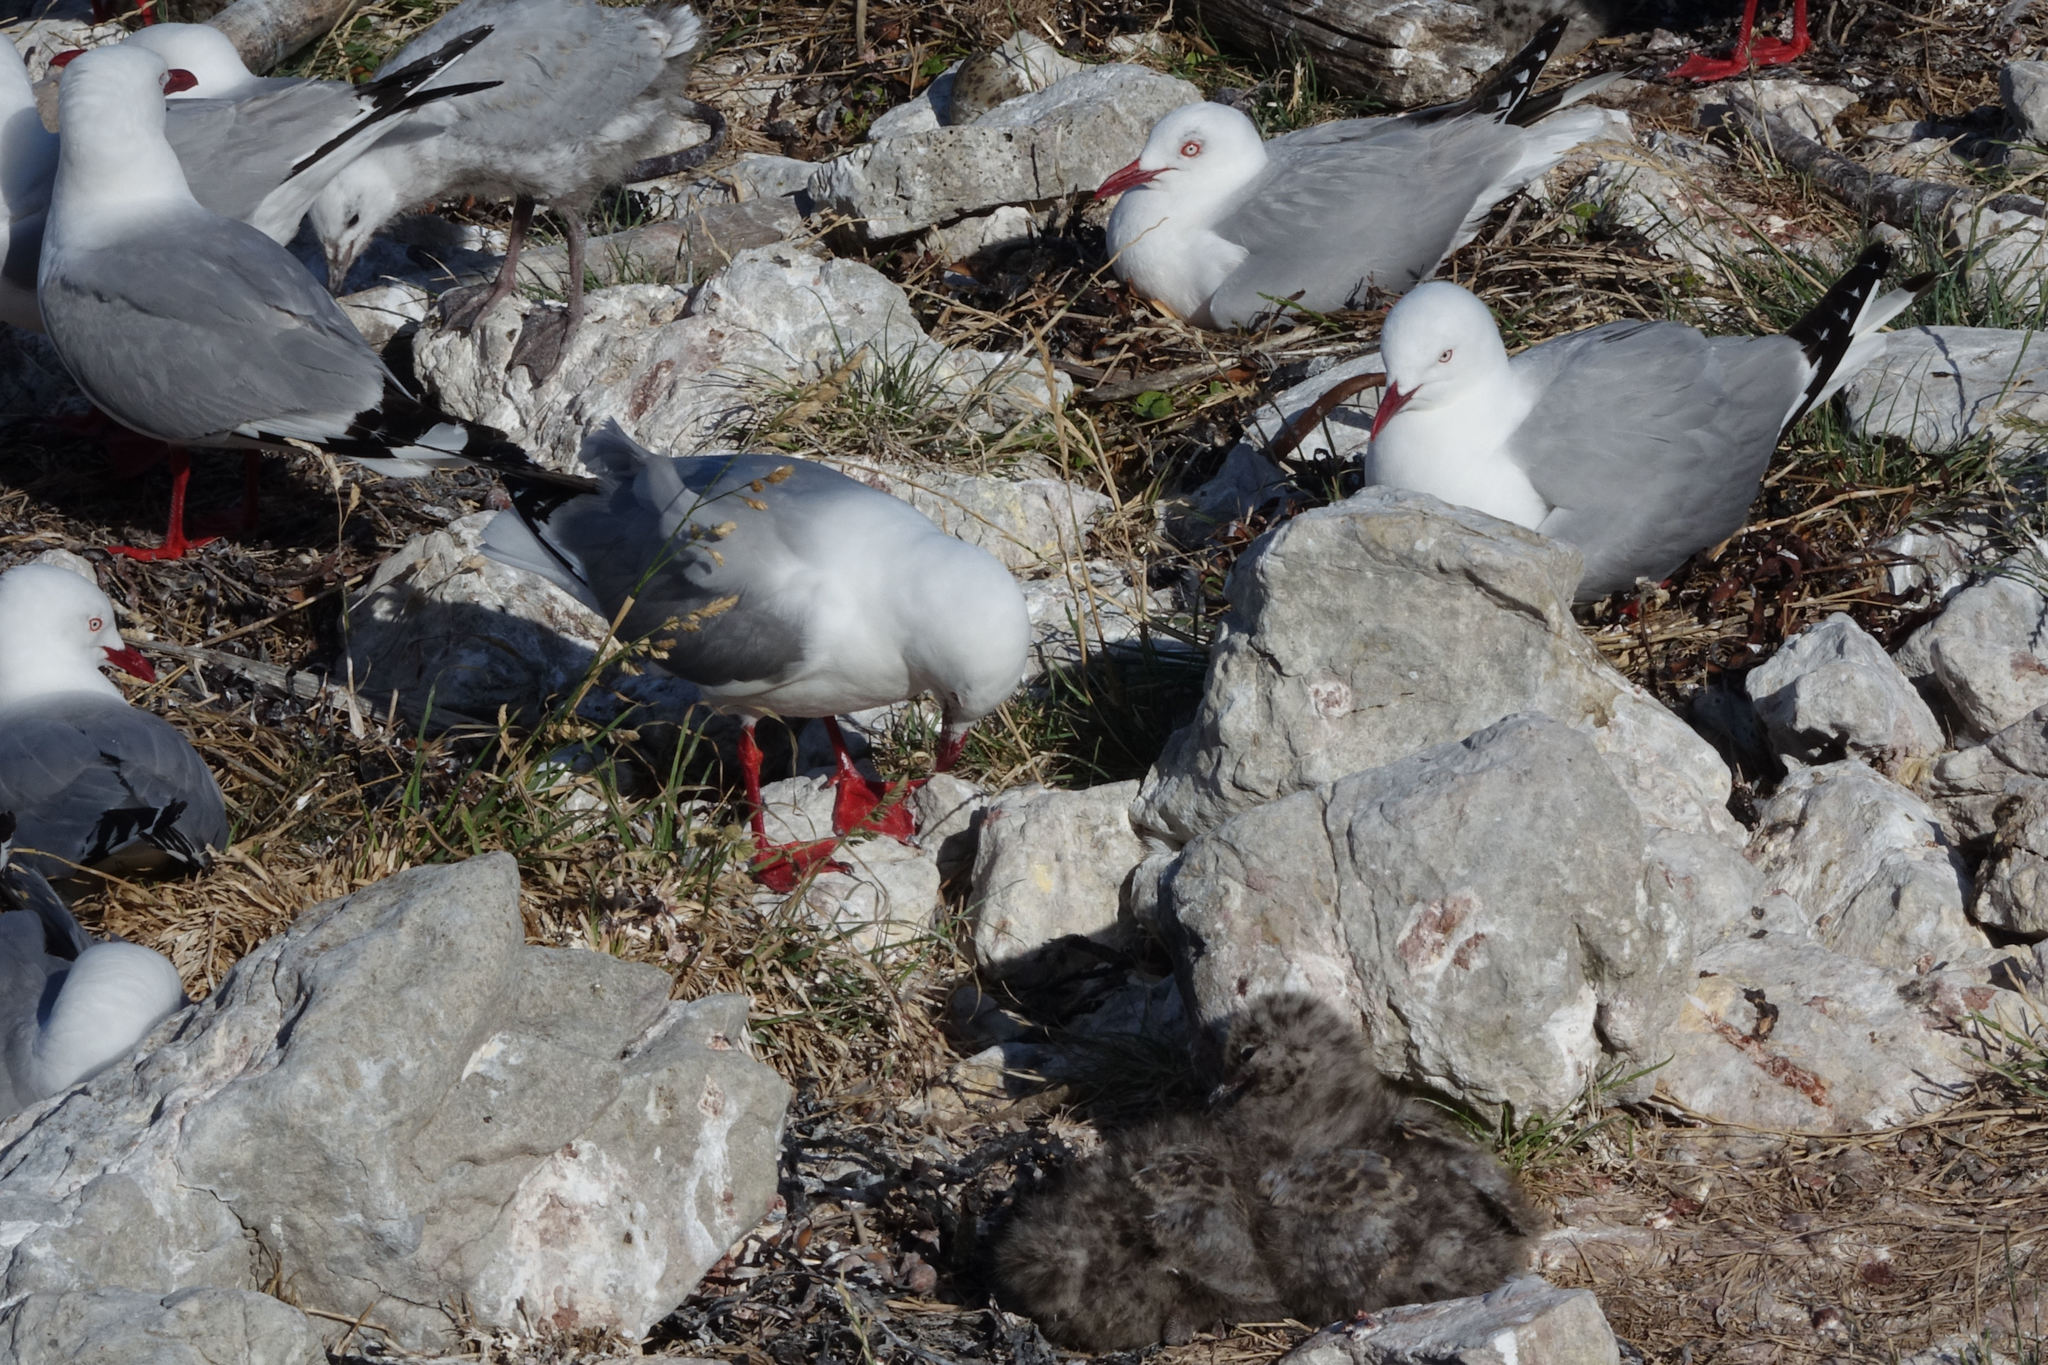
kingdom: Animalia
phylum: Chordata
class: Aves
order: Charadriiformes
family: Laridae
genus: Chroicocephalus
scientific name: Chroicocephalus novaehollandiae
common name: Silver gull
